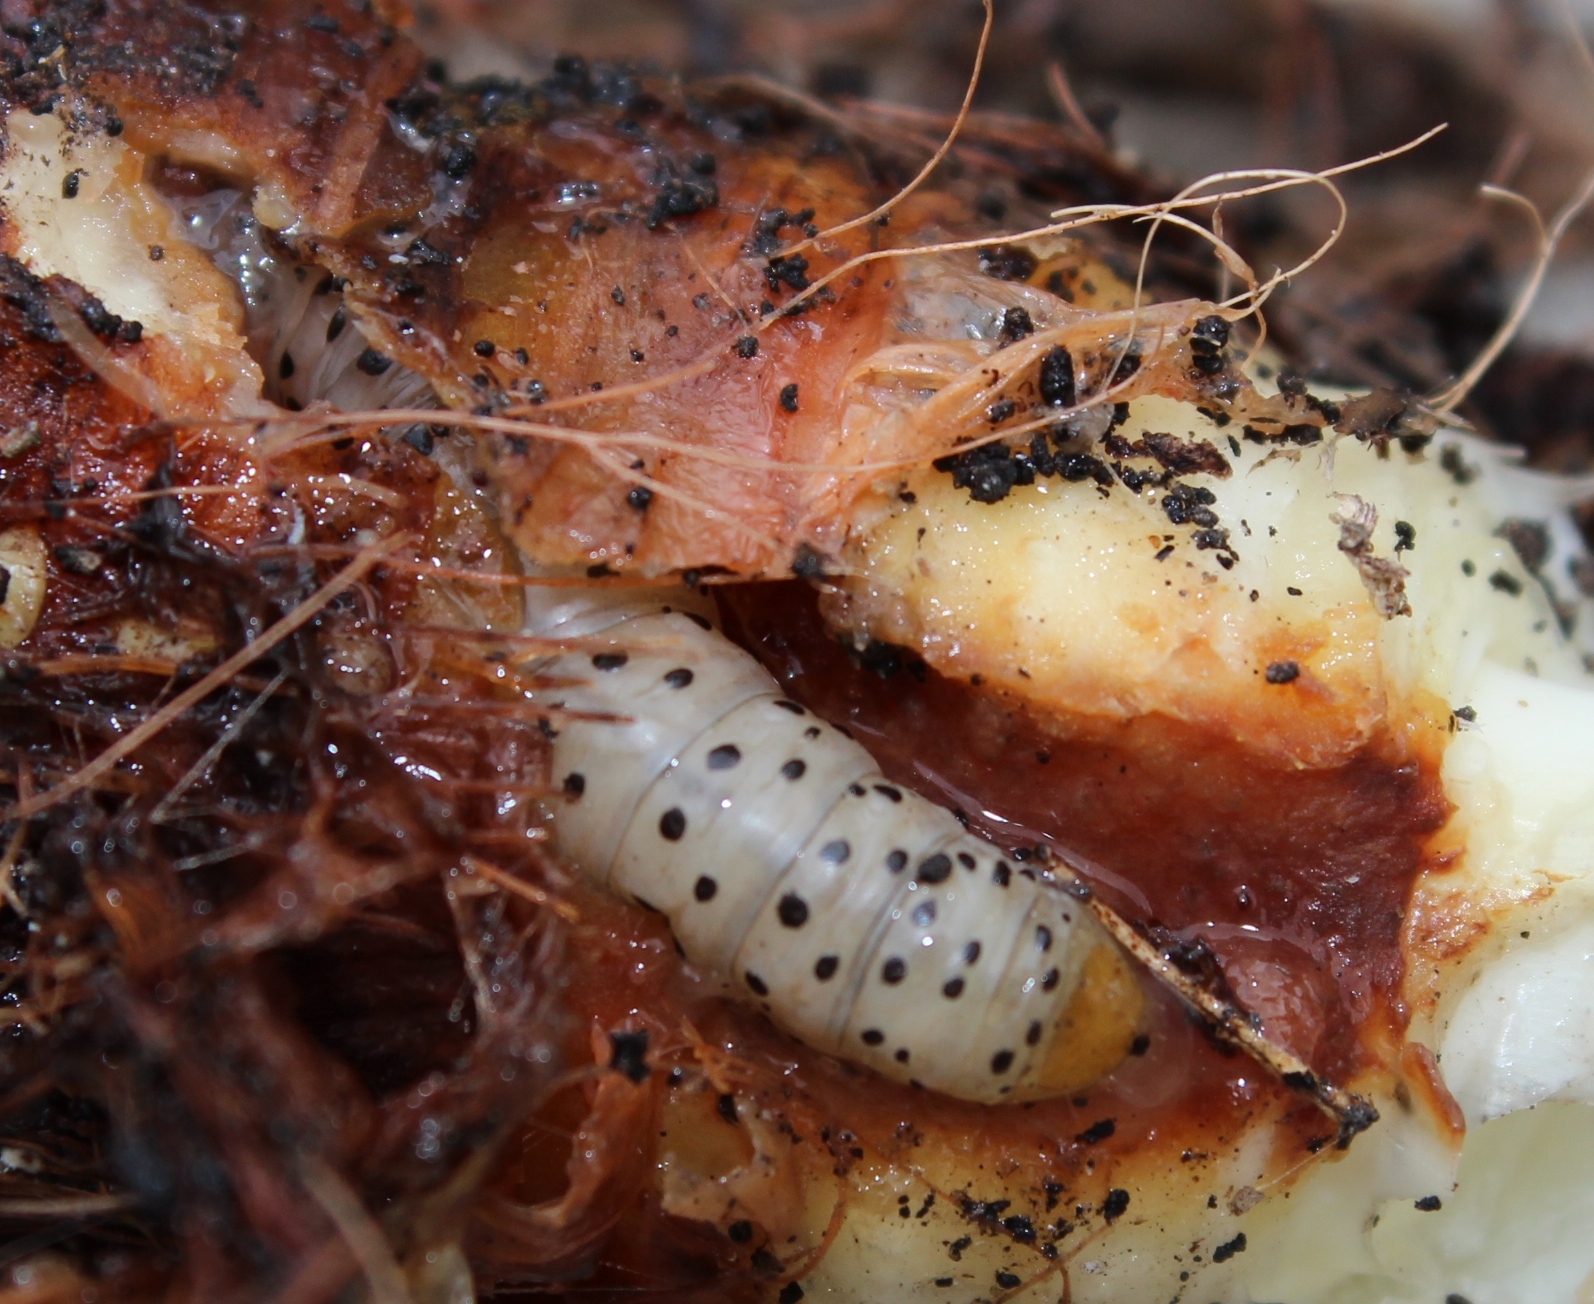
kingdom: Animalia
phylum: Arthropoda
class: Insecta
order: Lepidoptera
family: Noctuidae
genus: Neuranethes
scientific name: Neuranethes spodopterodes
